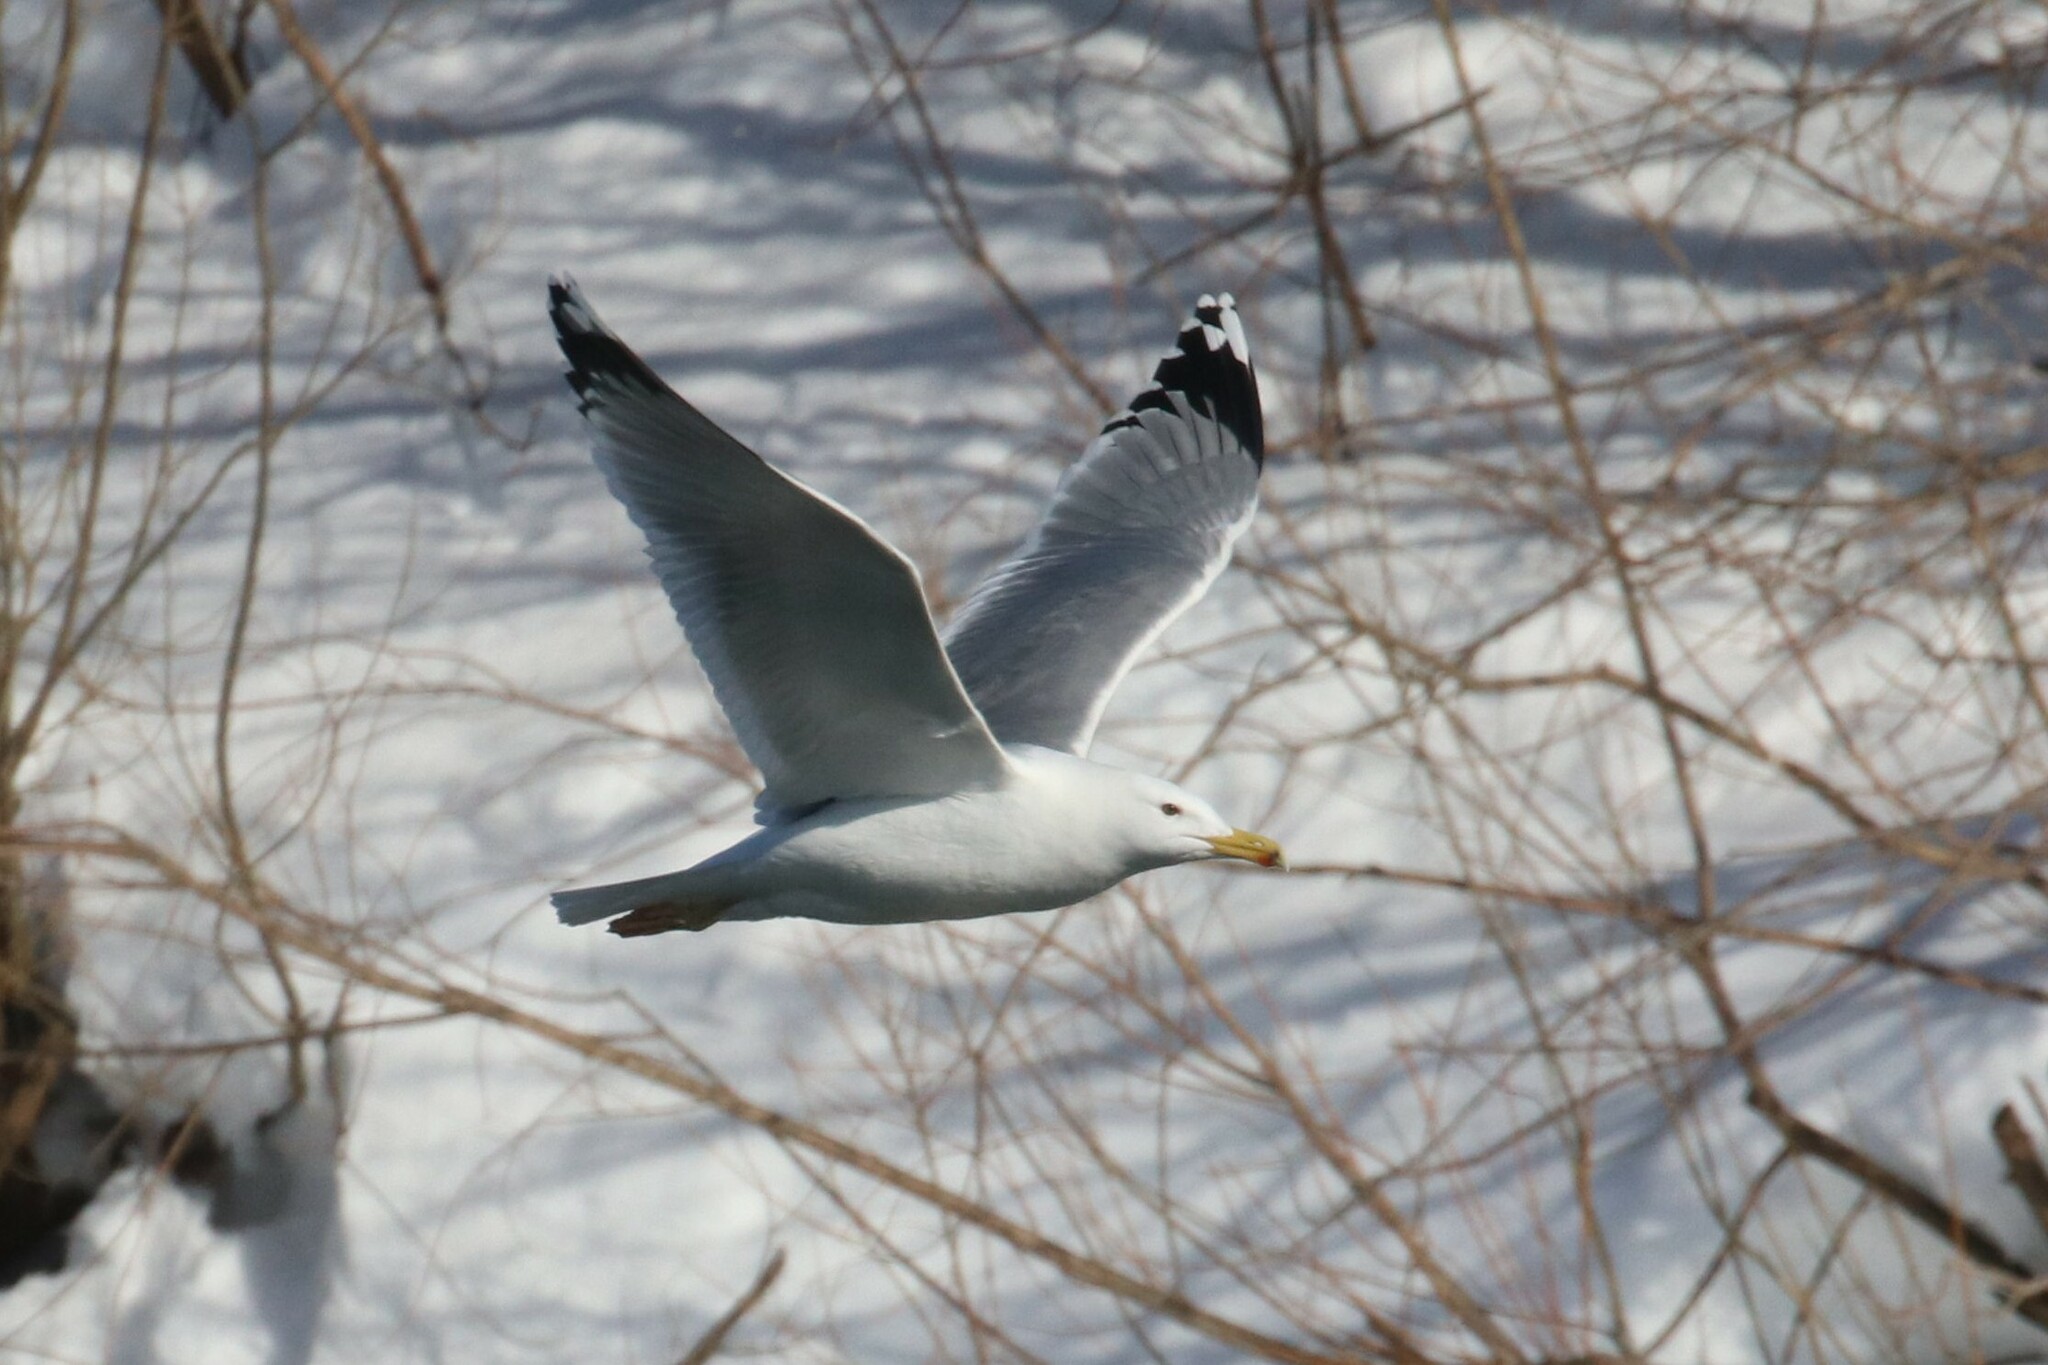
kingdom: Animalia
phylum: Chordata
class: Aves
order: Charadriiformes
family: Laridae
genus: Larus
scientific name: Larus cachinnans
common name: Caspian gull
